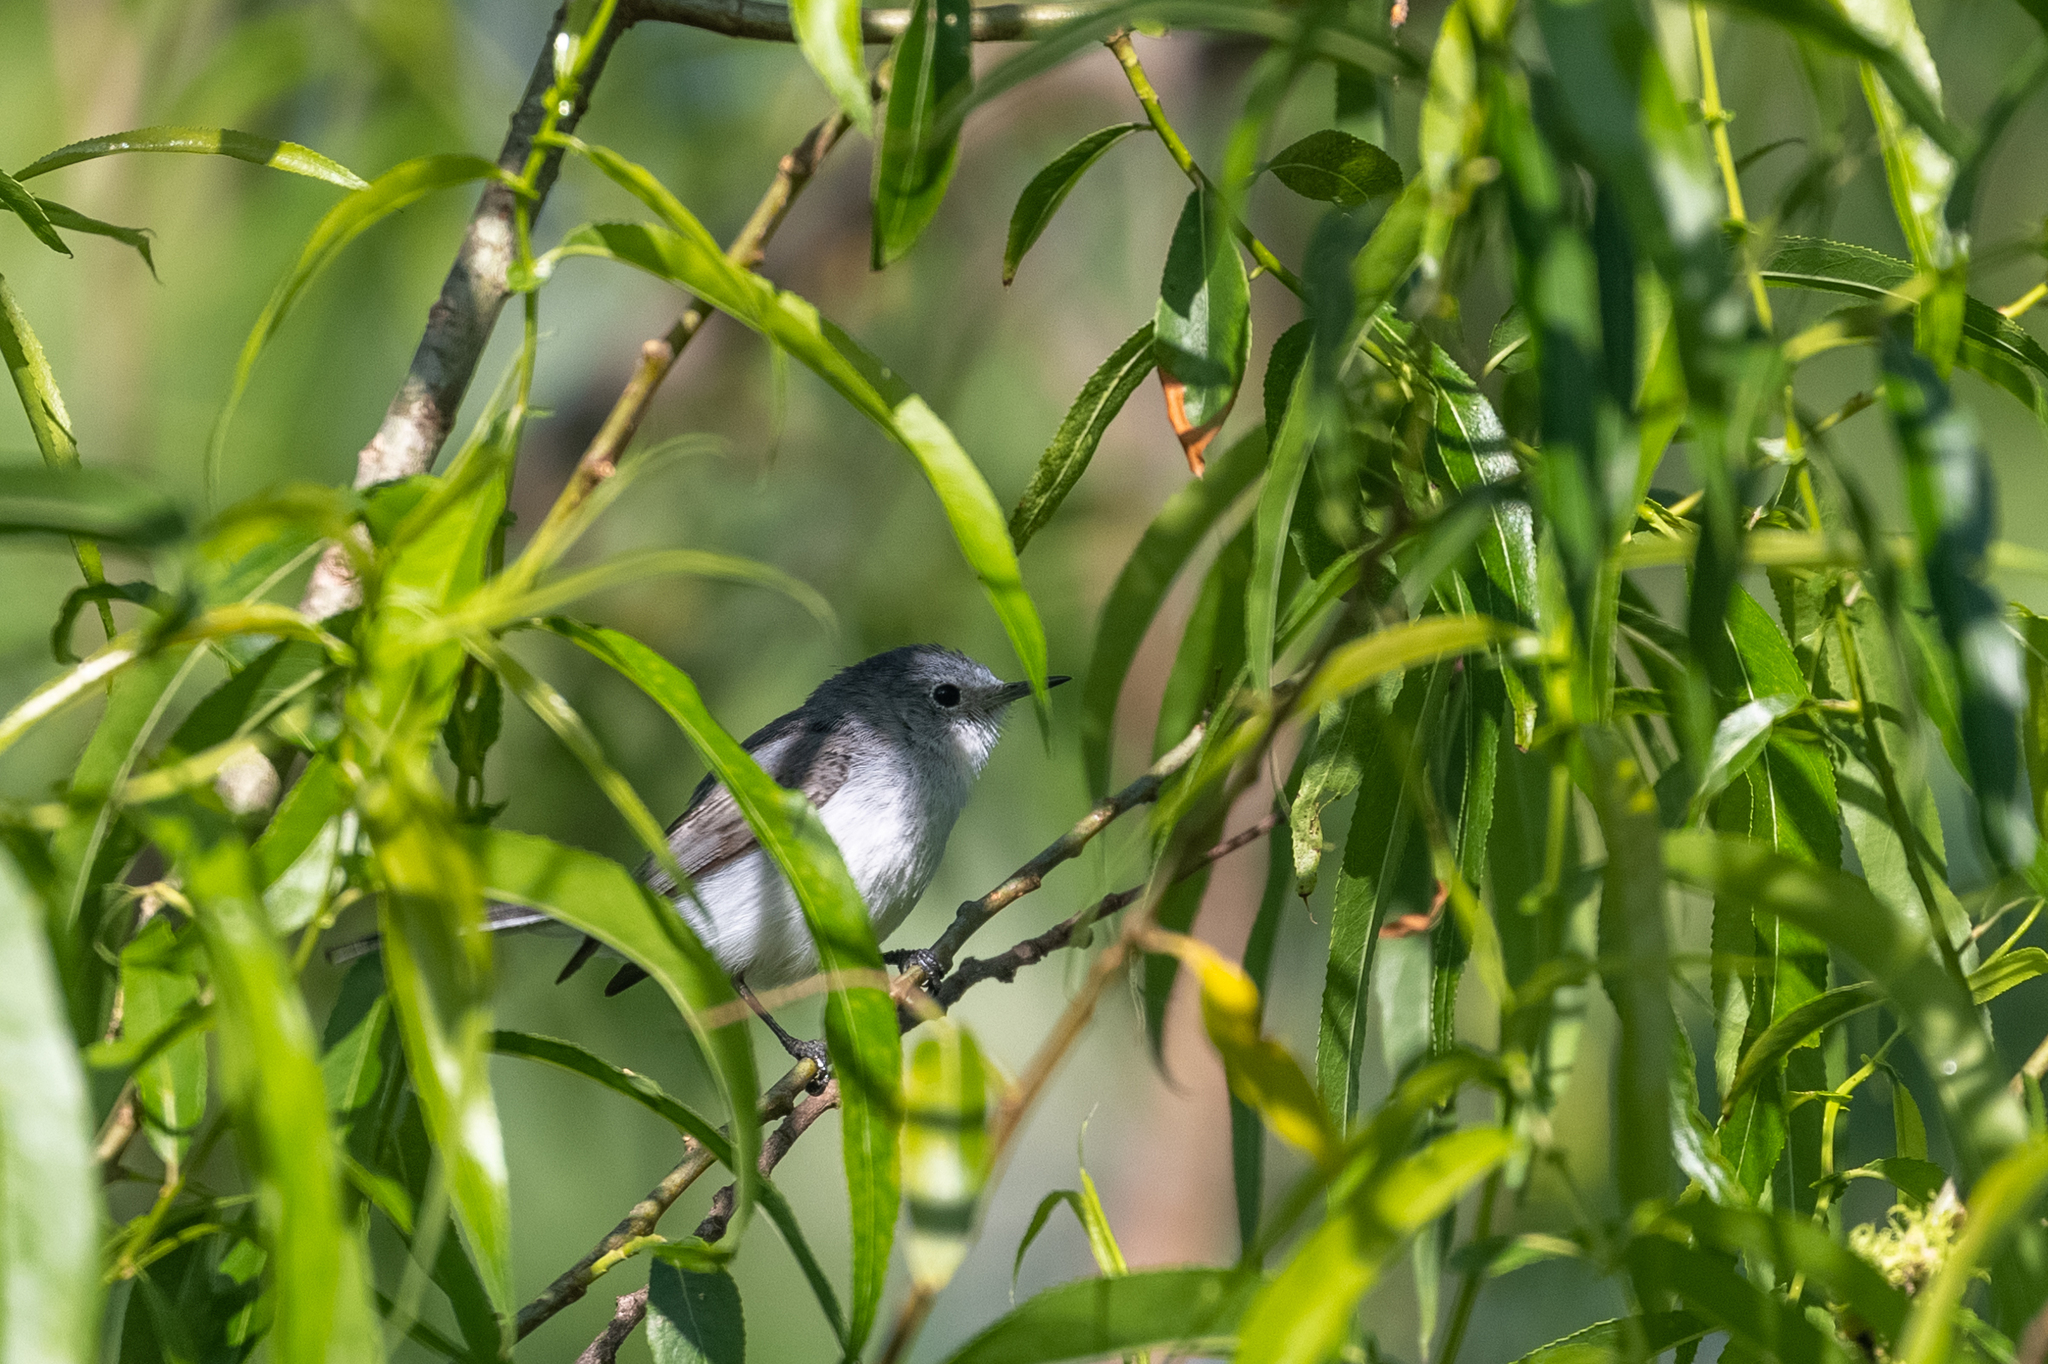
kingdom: Animalia
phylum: Chordata
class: Aves
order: Passeriformes
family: Polioptilidae
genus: Polioptila
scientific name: Polioptila caerulea
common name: Blue-gray gnatcatcher
